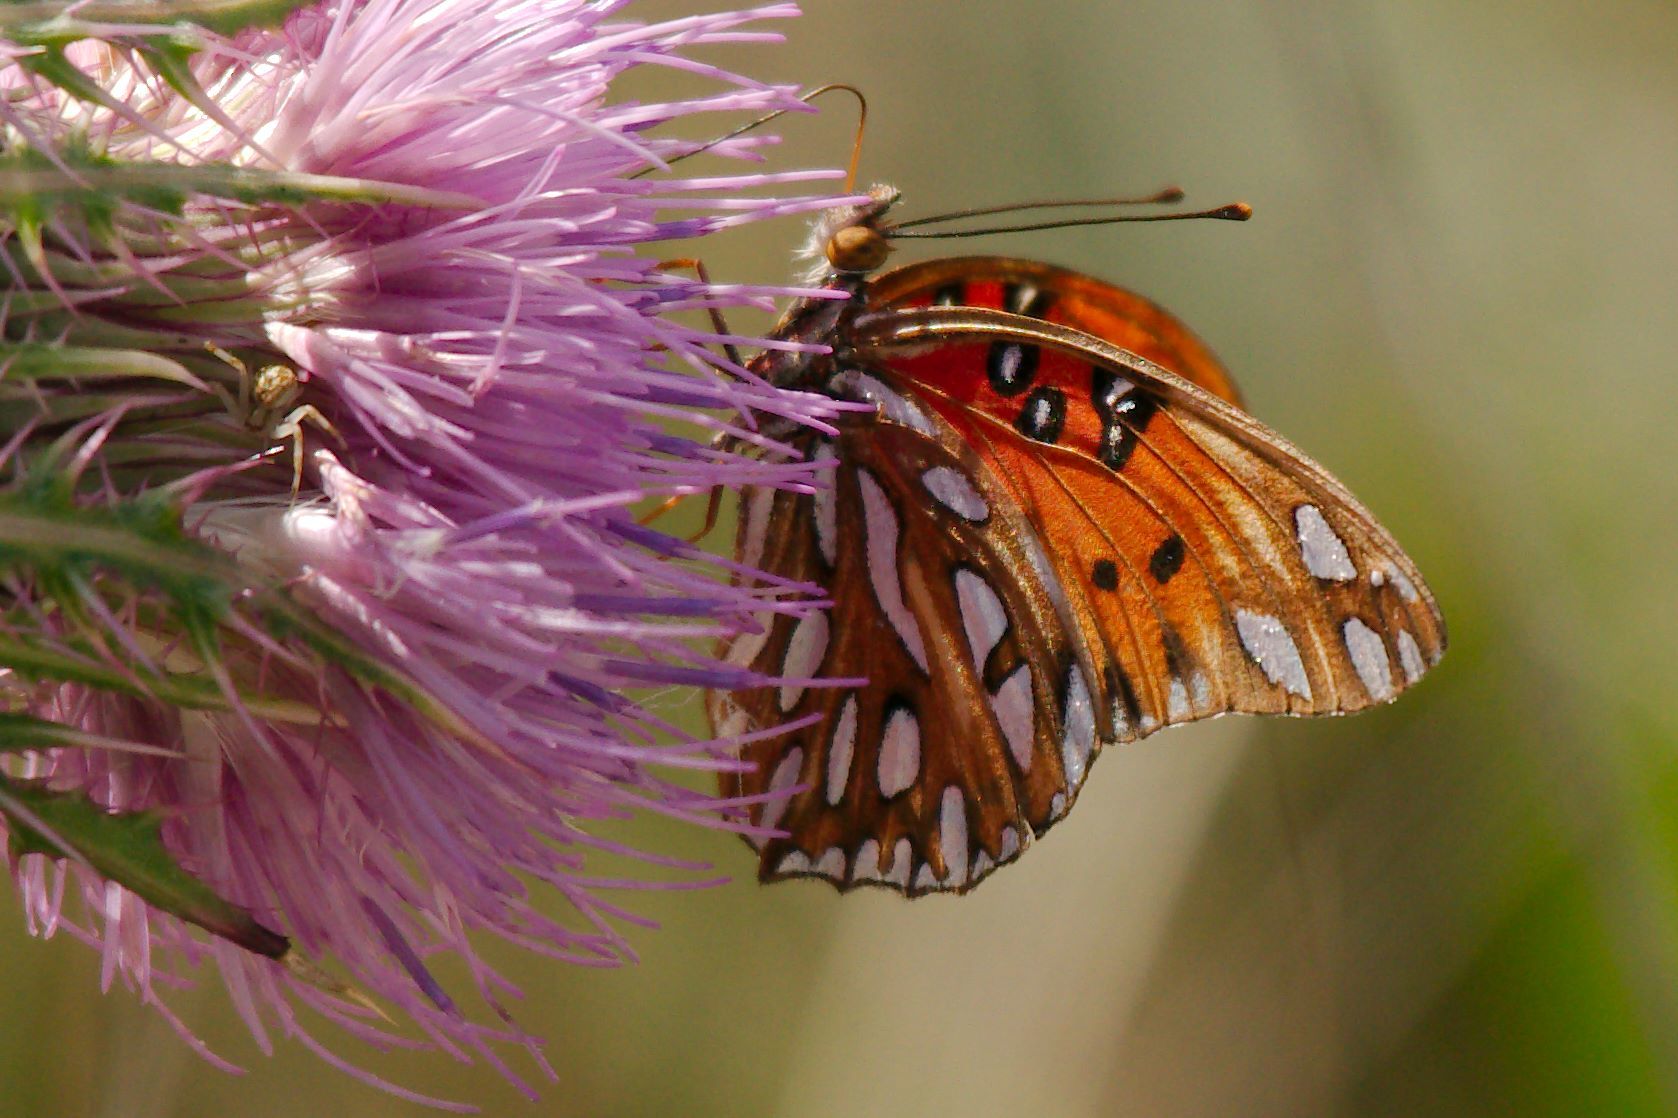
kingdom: Animalia
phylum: Arthropoda
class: Insecta
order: Lepidoptera
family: Nymphalidae
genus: Dione
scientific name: Dione vanillae
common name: Gulf fritillary
